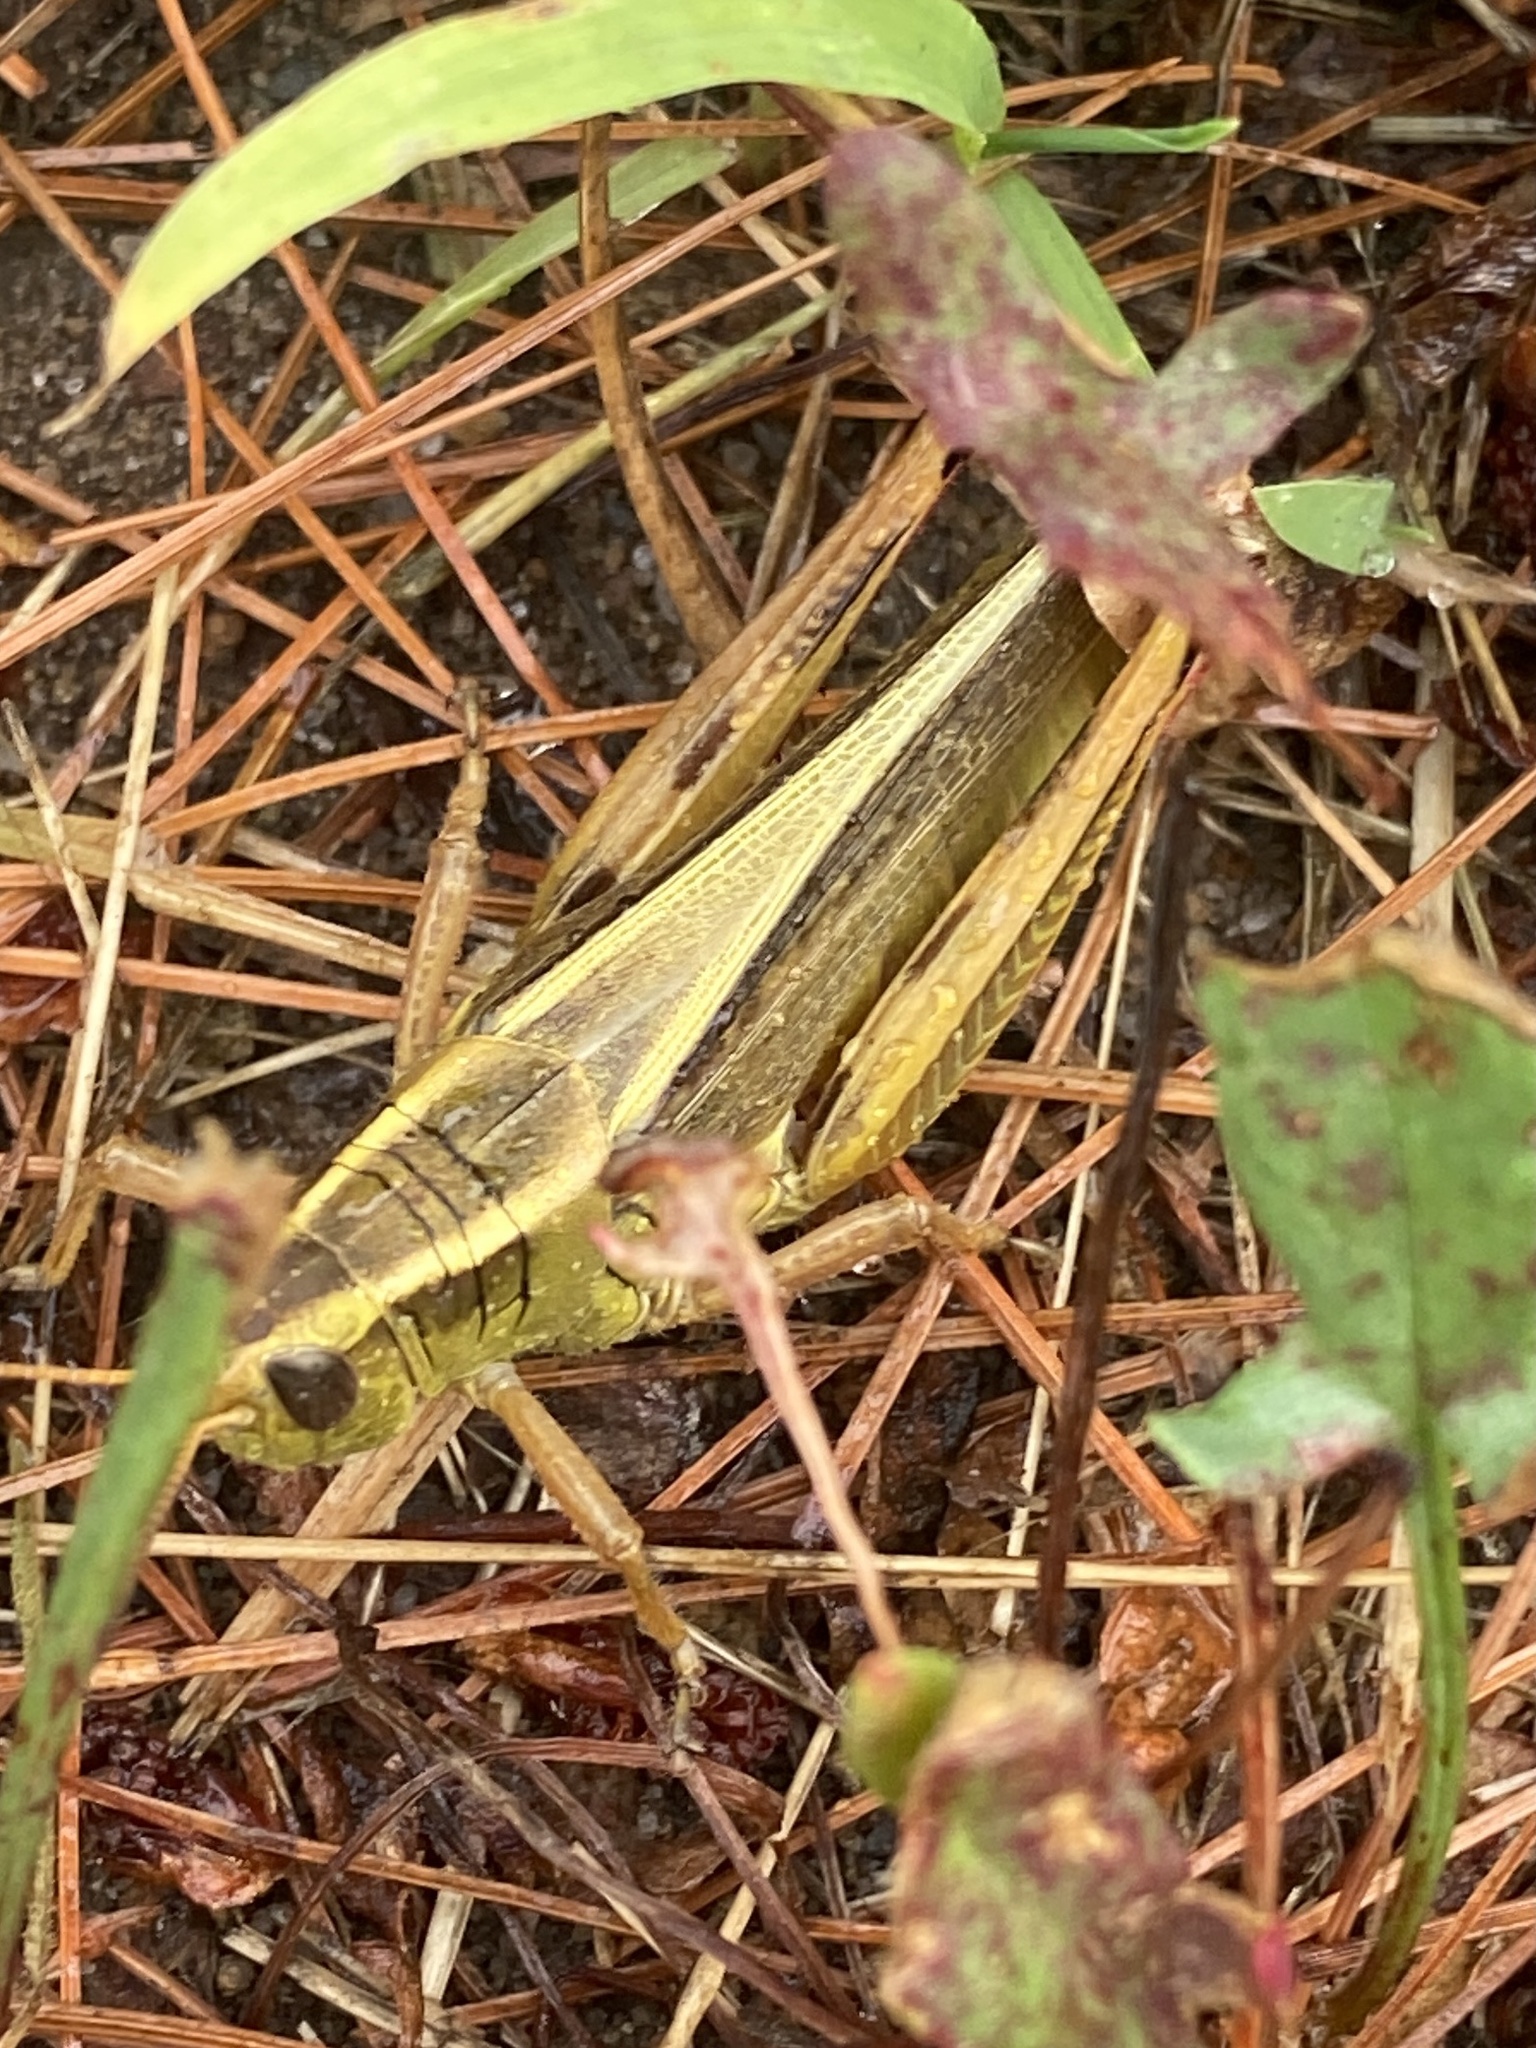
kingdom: Animalia
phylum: Arthropoda
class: Insecta
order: Orthoptera
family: Acrididae
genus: Melanoplus
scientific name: Melanoplus bivittatus
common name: Two-striped grasshopper
